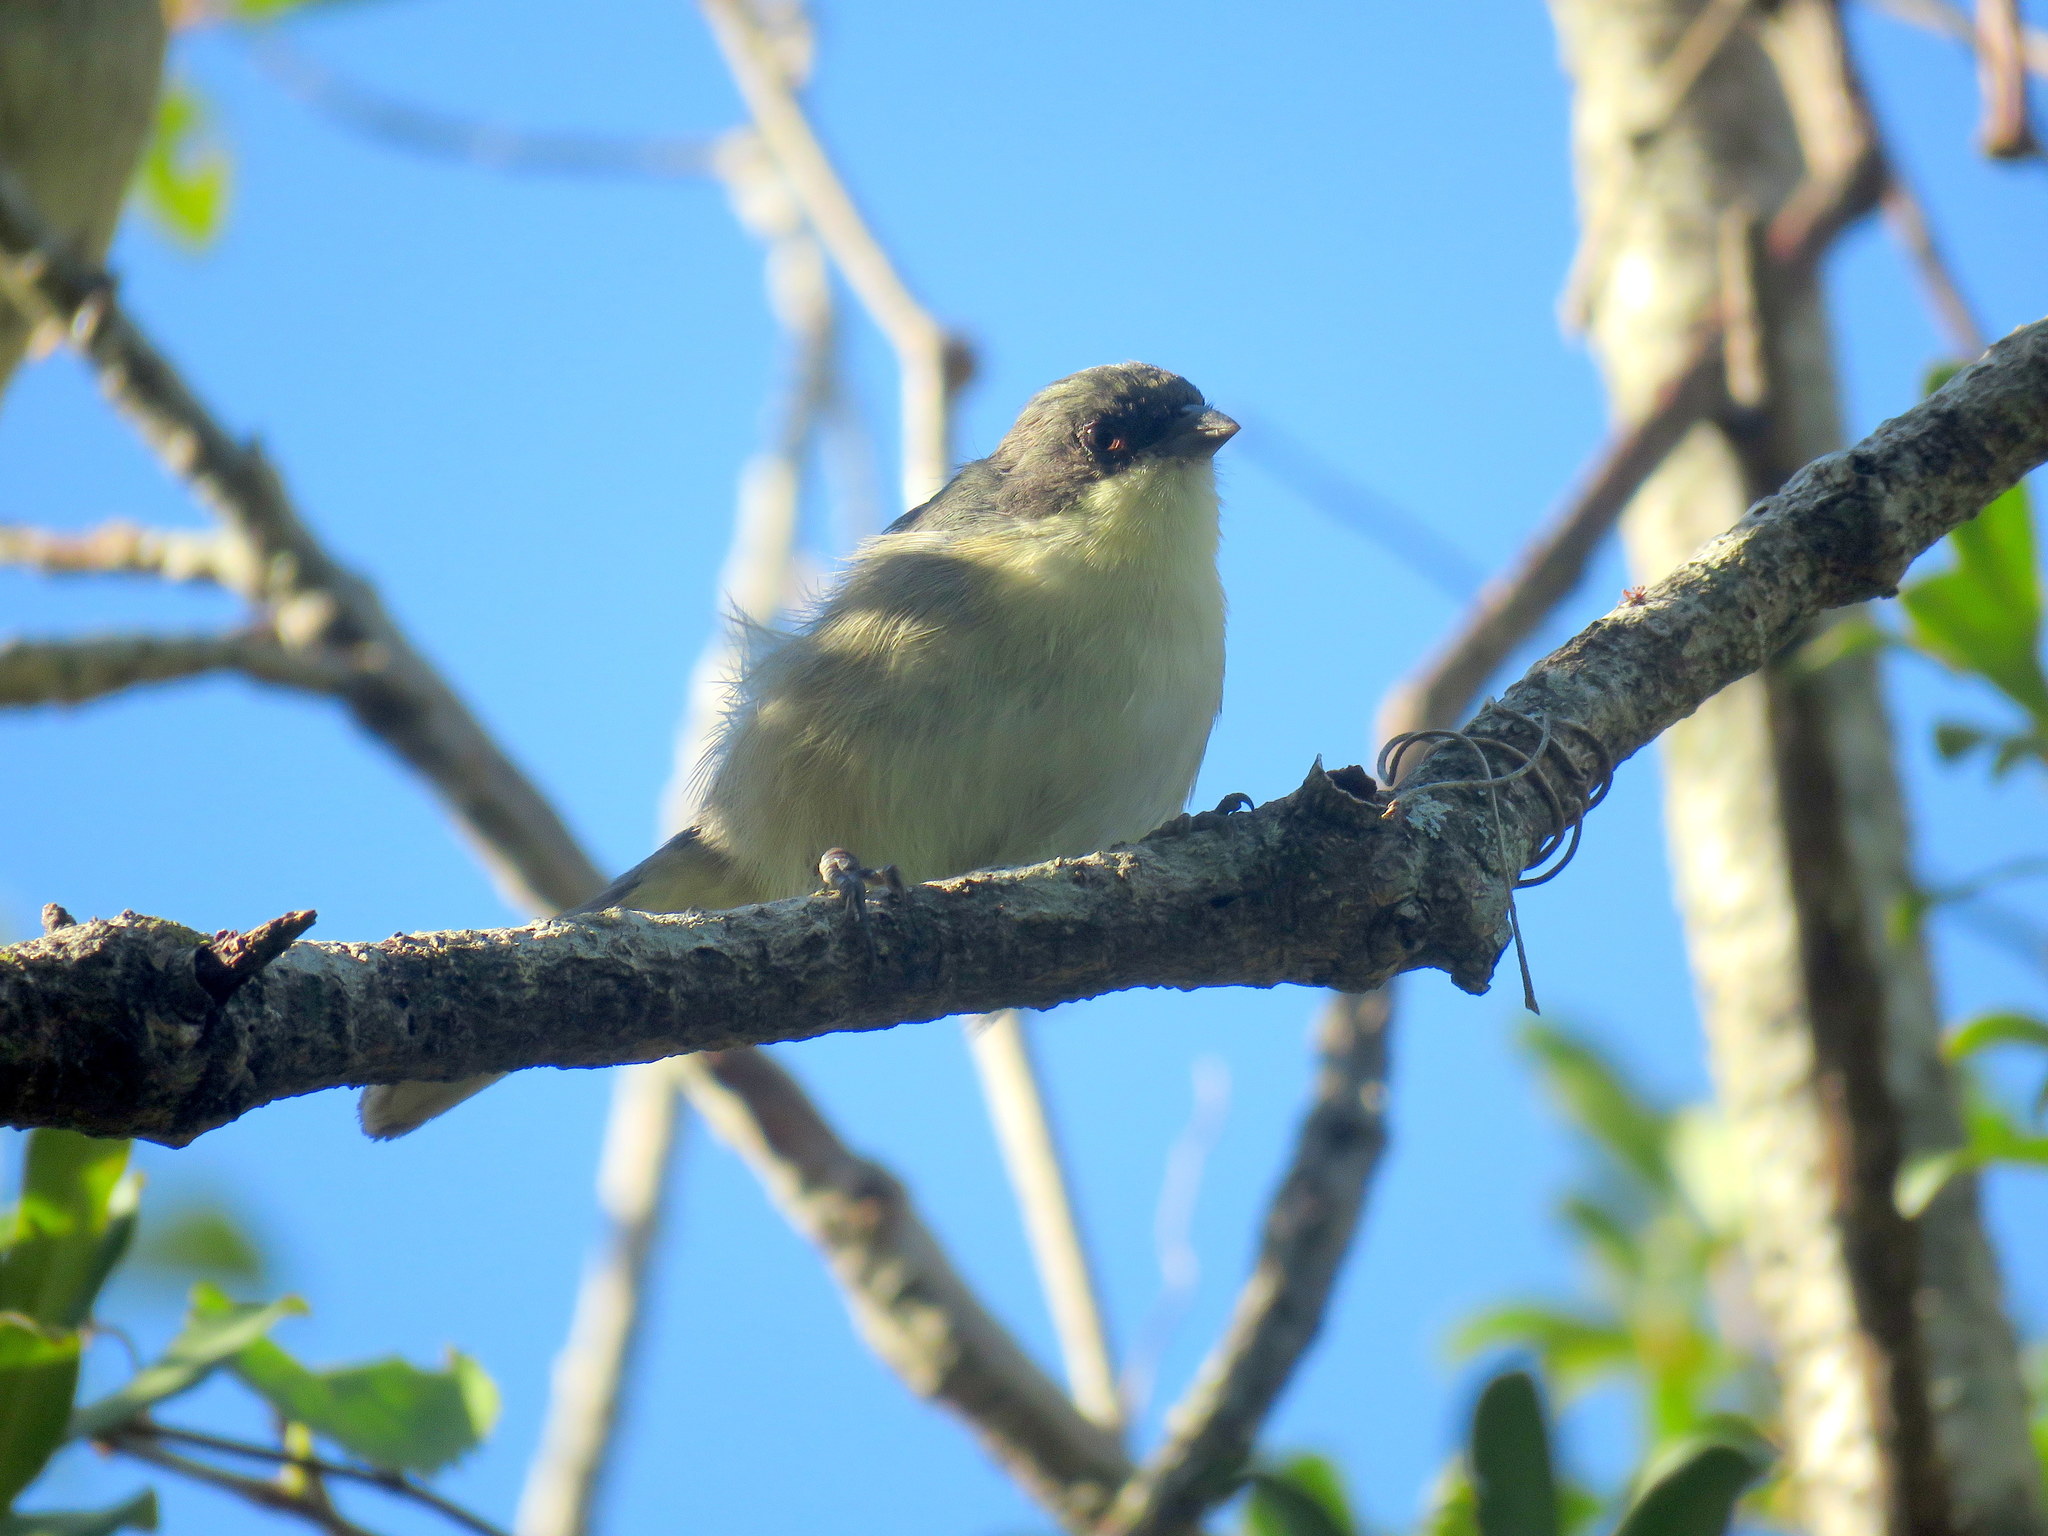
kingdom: Animalia
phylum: Chordata
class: Aves
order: Passeriformes
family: Thraupidae
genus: Microspingus
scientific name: Microspingus melanoleucus
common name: Black-capped warbling-finch
